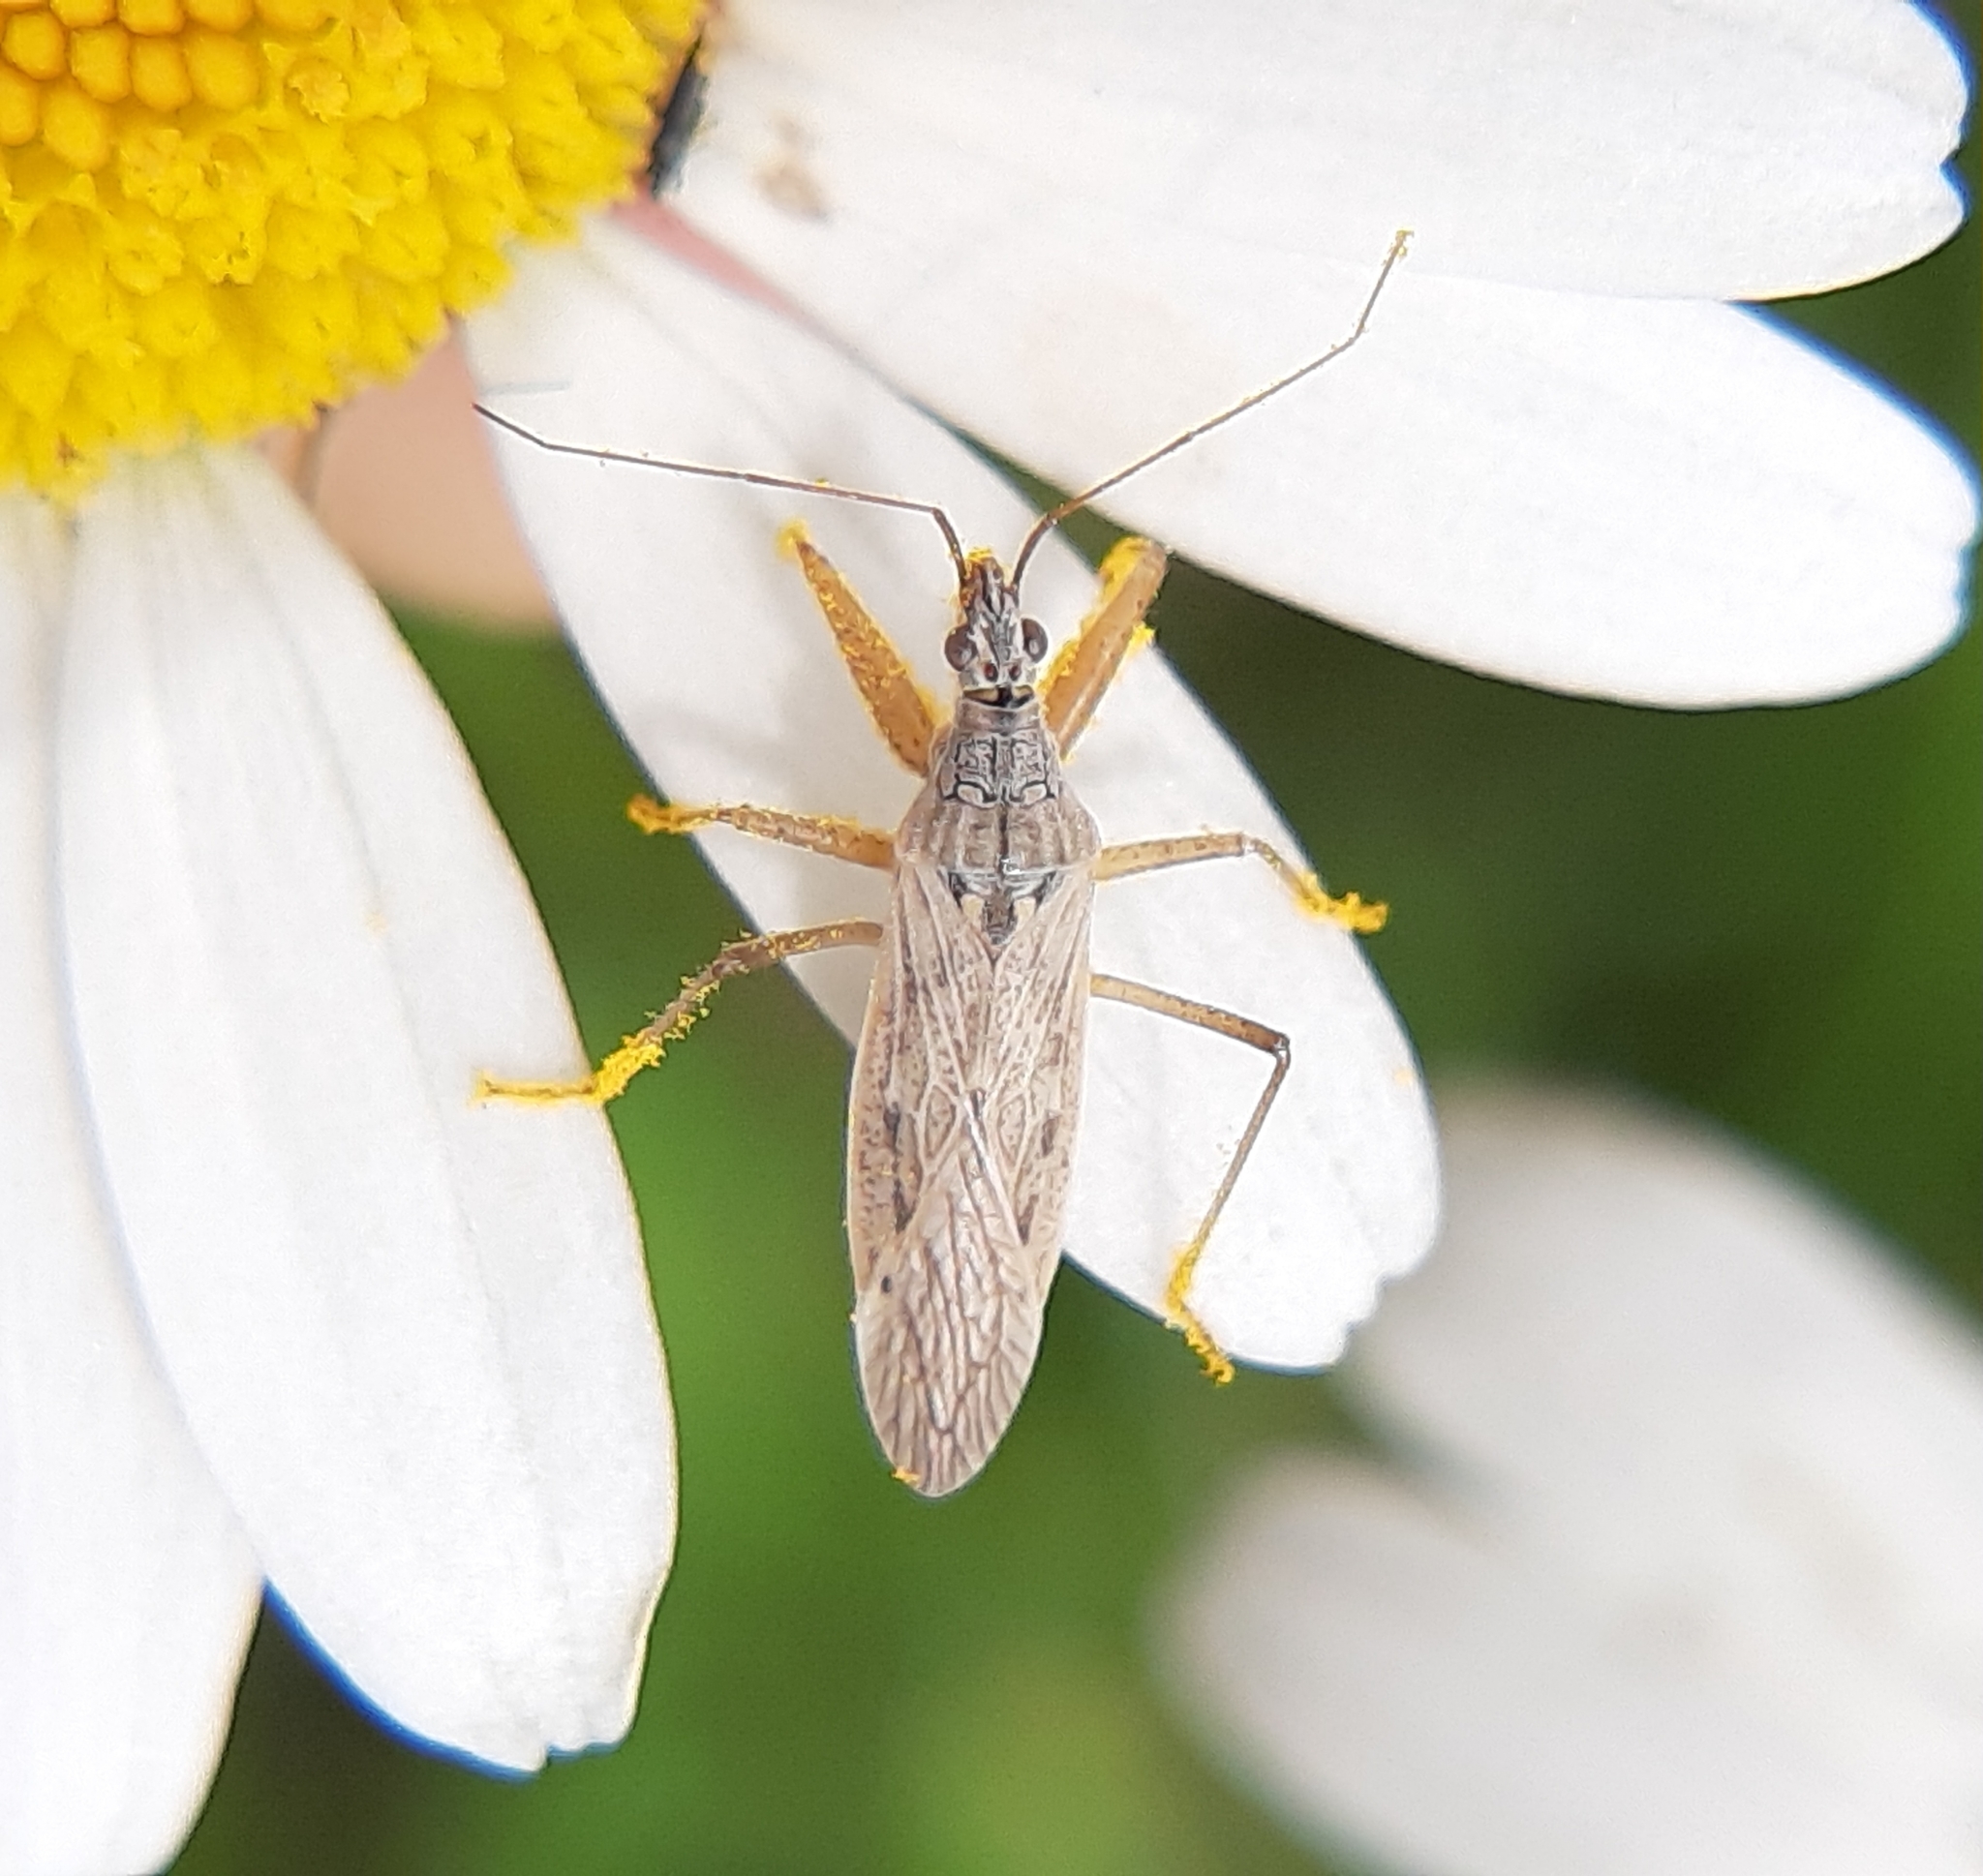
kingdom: Animalia
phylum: Arthropoda
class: Insecta
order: Hemiptera
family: Nabidae
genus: Nabis
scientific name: Nabis americoferus
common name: Common damsel bug
